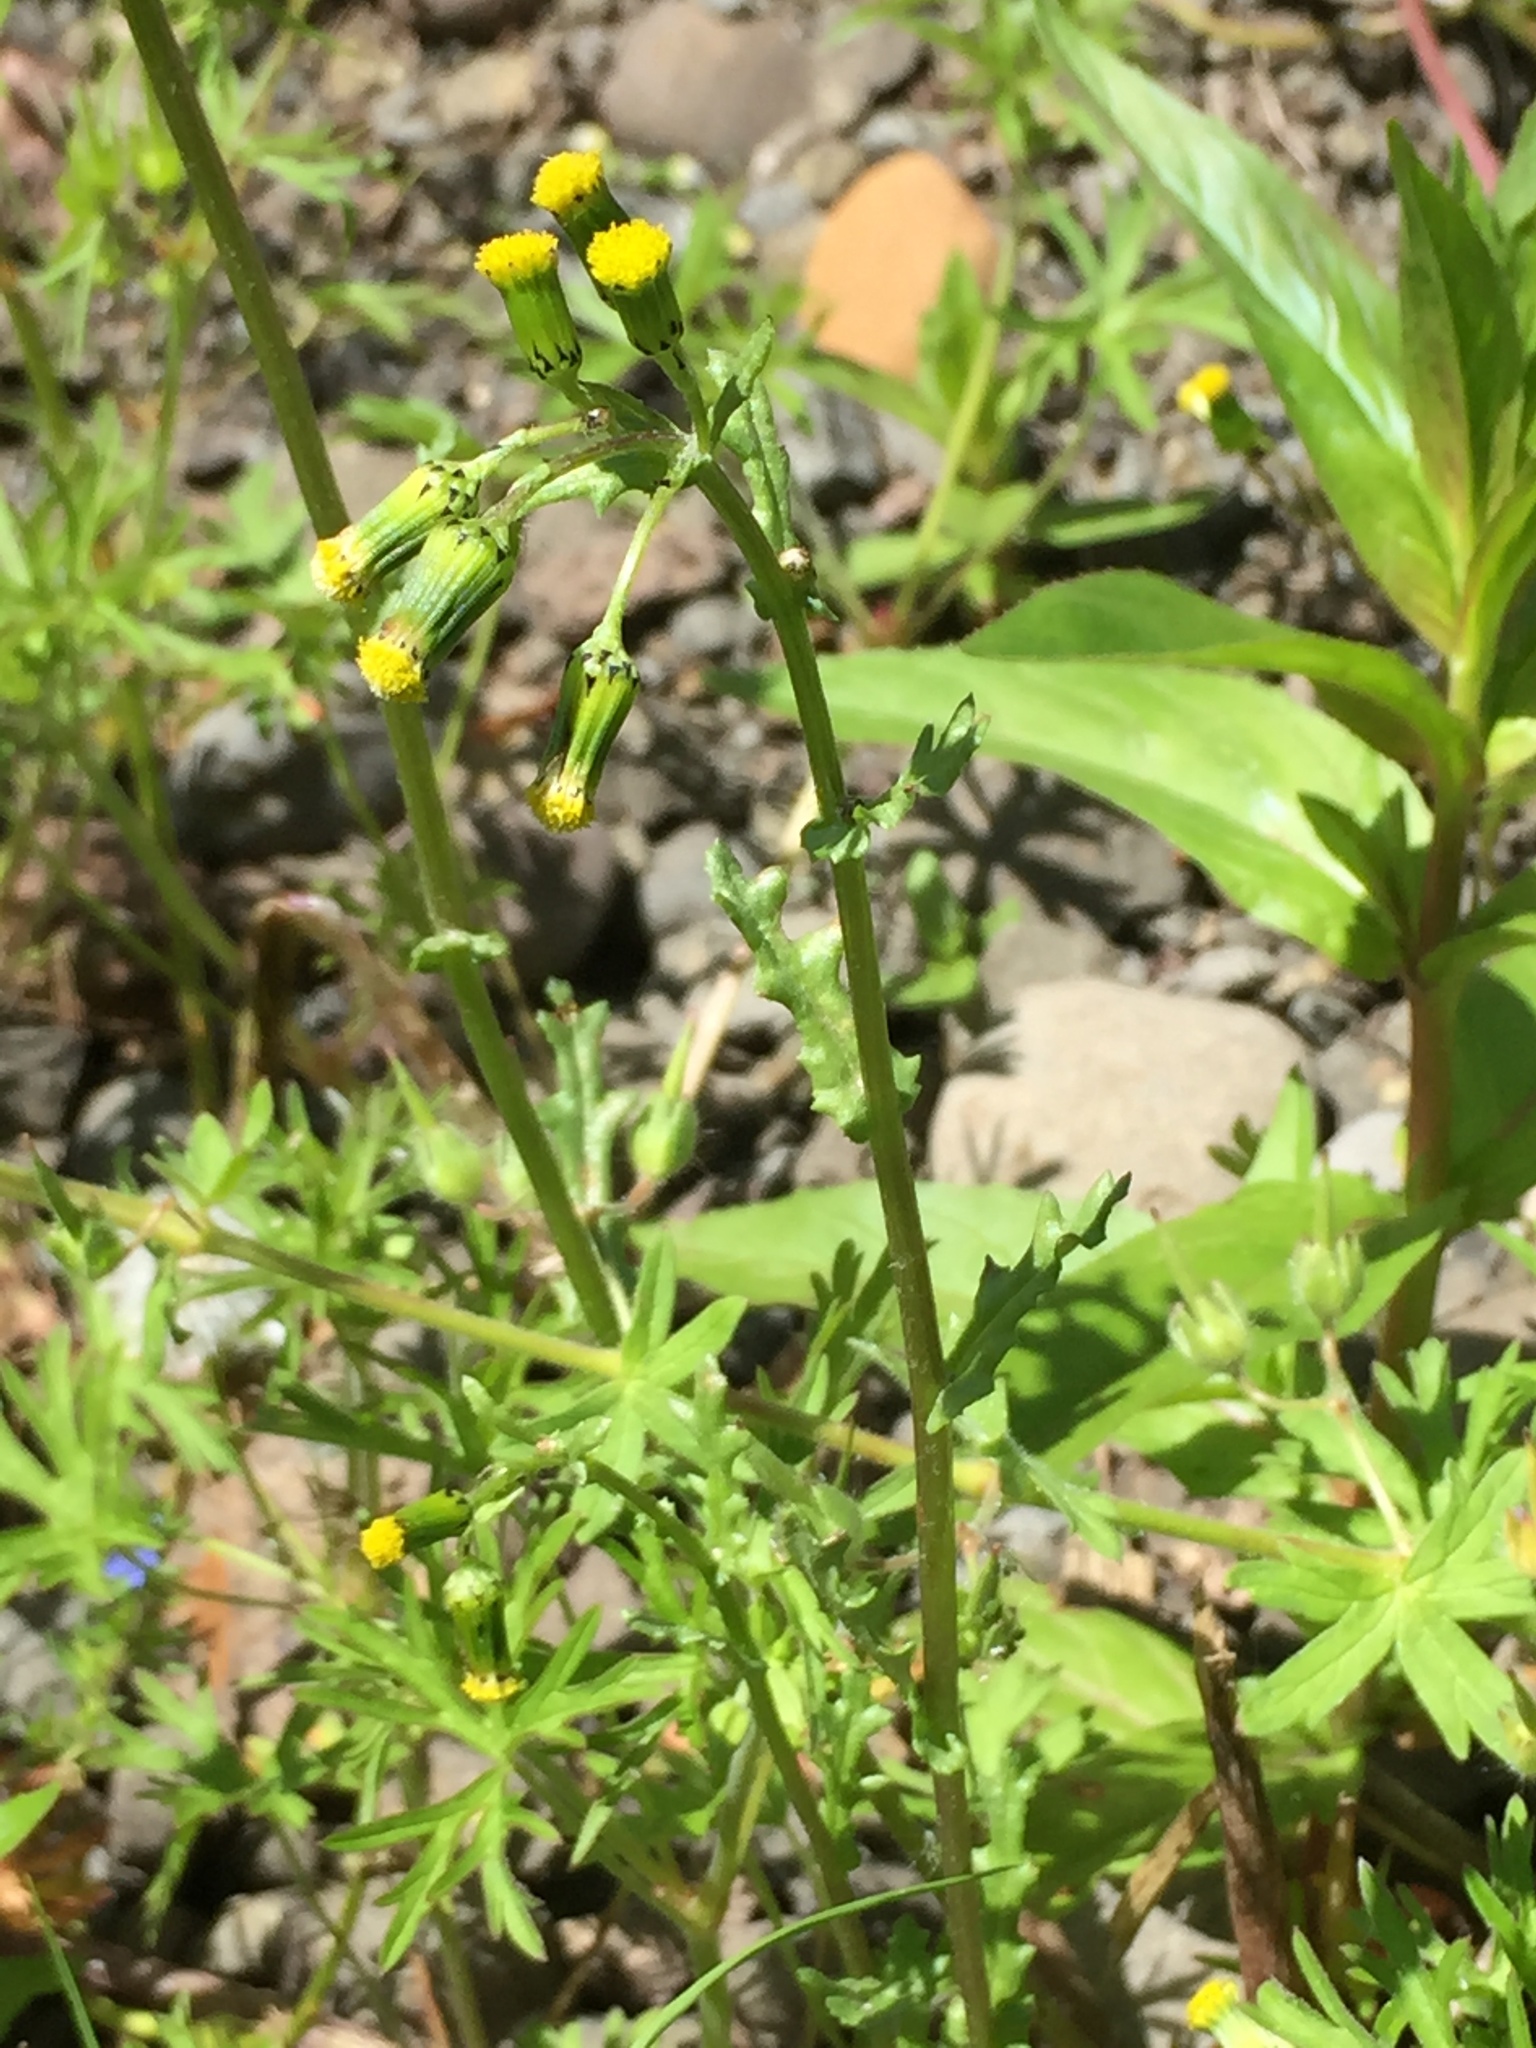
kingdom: Plantae
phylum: Tracheophyta
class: Magnoliopsida
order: Asterales
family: Asteraceae
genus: Senecio
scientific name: Senecio vulgaris
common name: Old-man-in-the-spring
